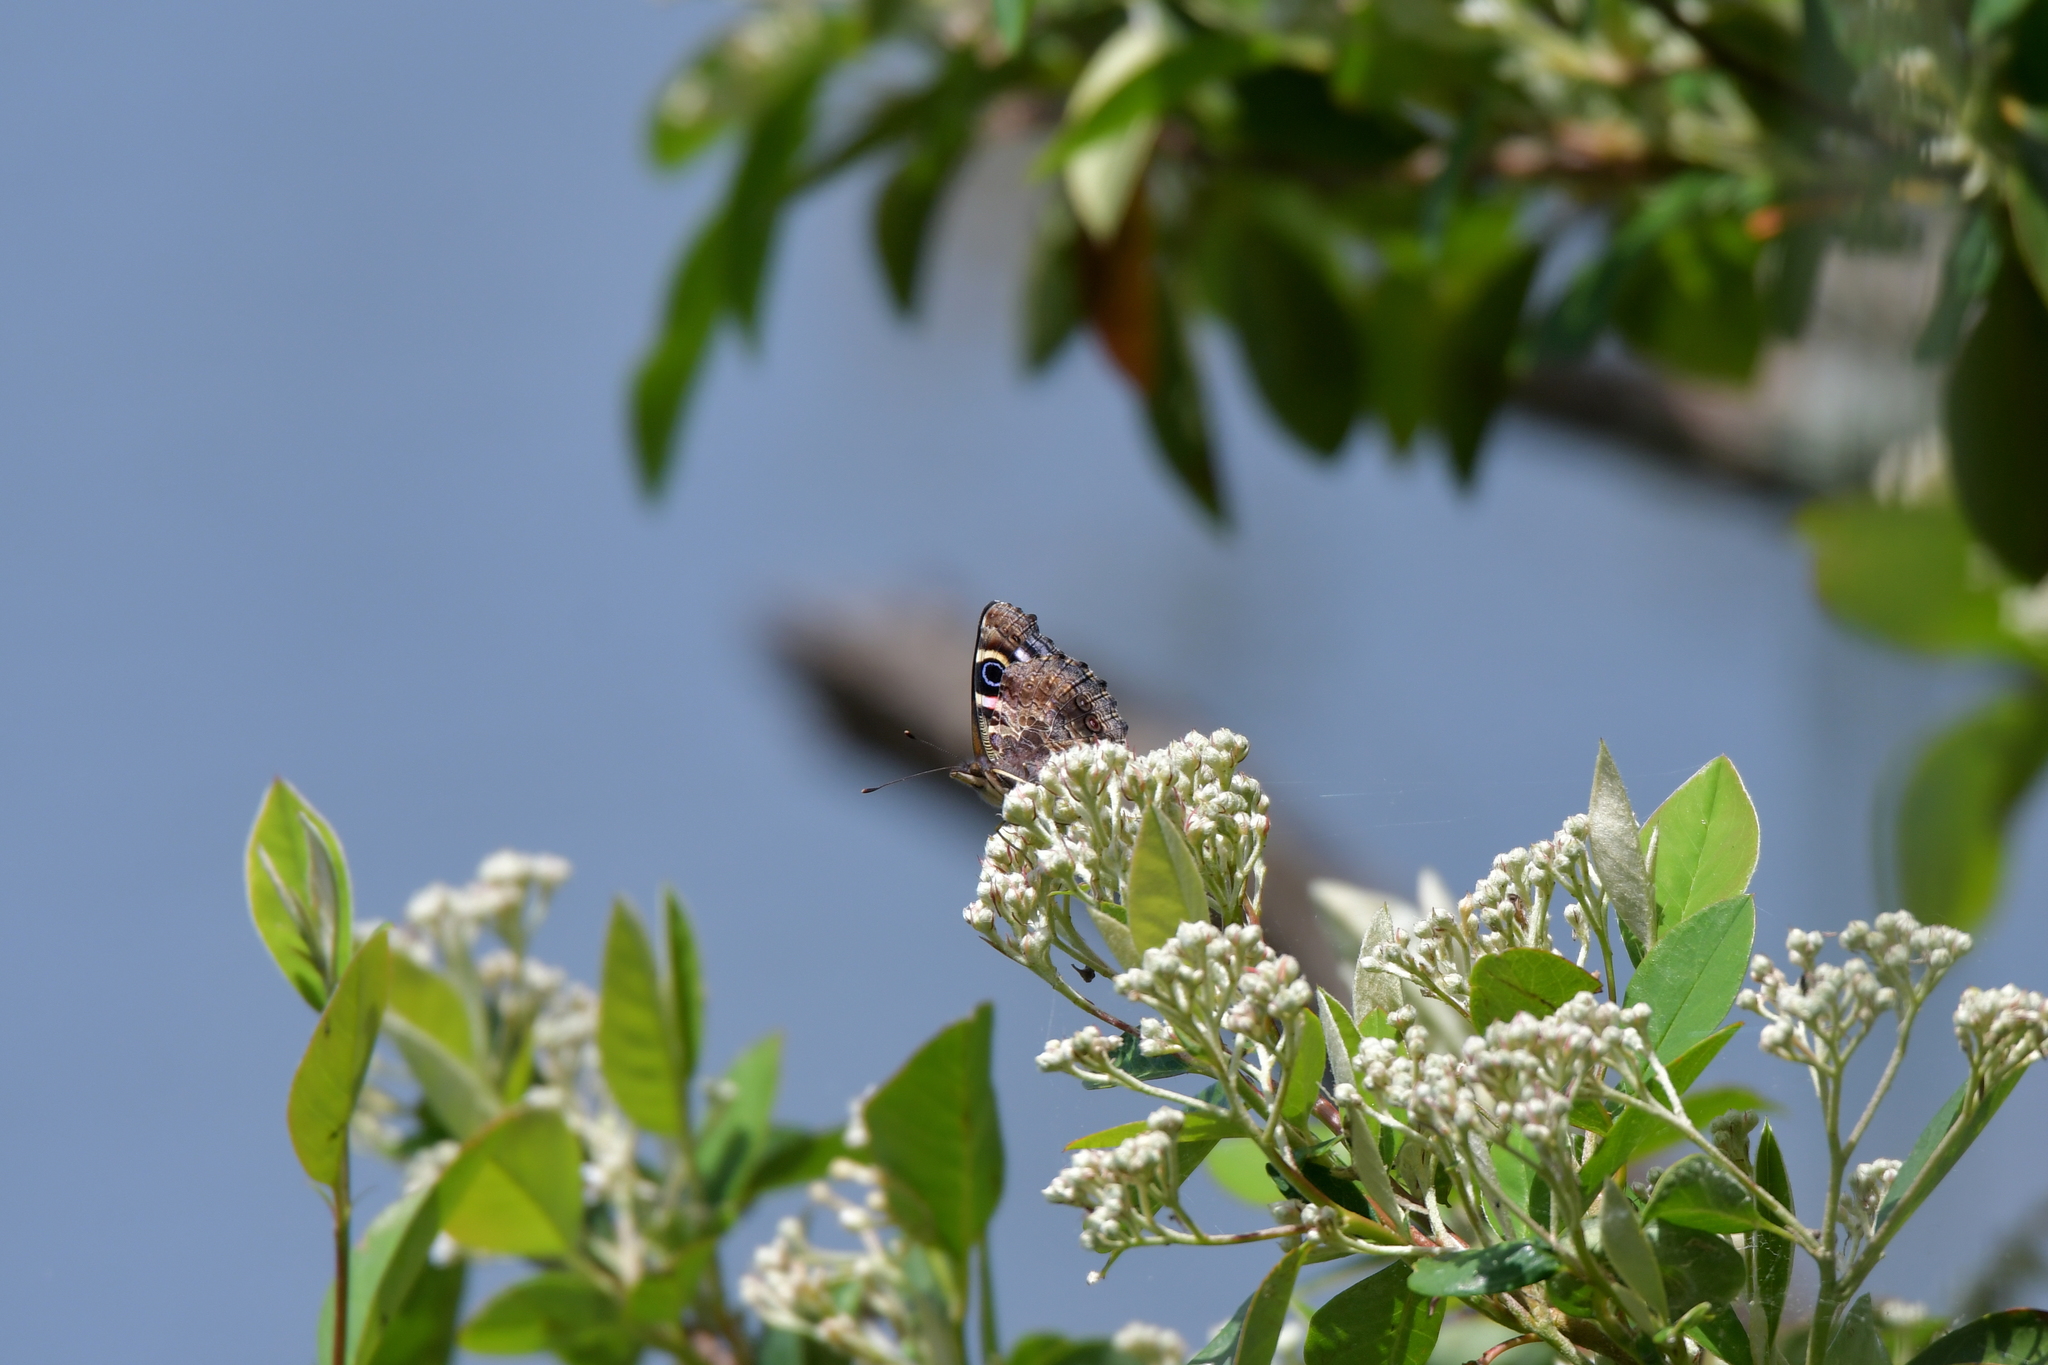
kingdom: Animalia
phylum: Arthropoda
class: Insecta
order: Lepidoptera
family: Nymphalidae
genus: Vanessa
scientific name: Vanessa gonerilla
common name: New zealand red admiral
